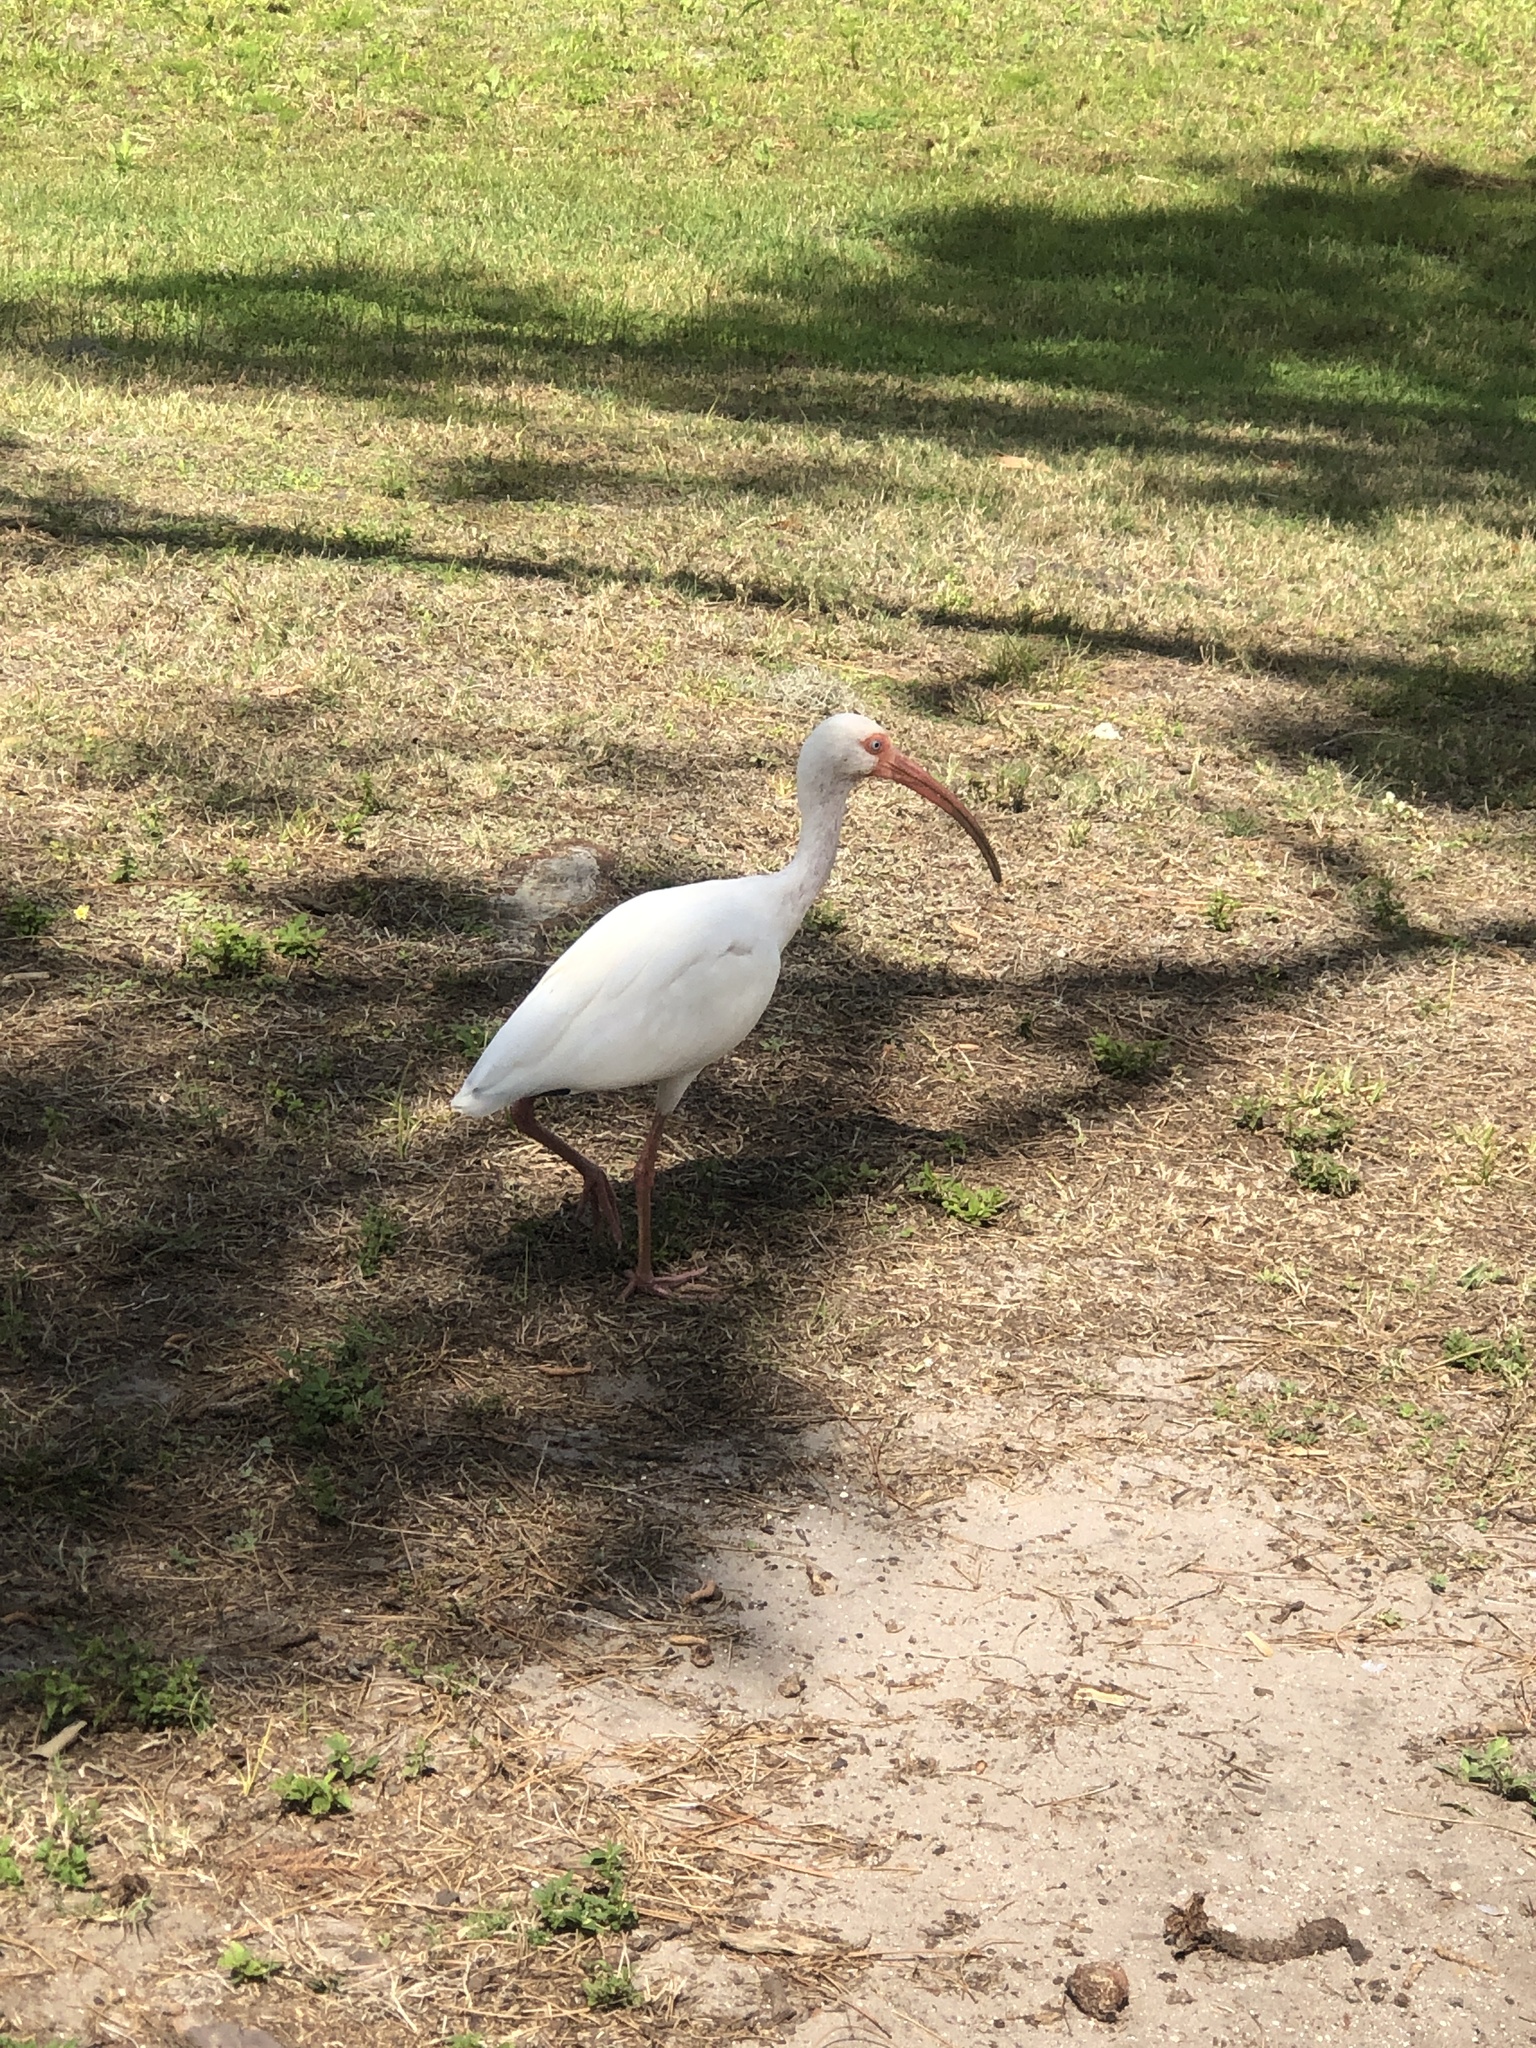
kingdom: Animalia
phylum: Chordata
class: Aves
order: Pelecaniformes
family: Threskiornithidae
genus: Eudocimus
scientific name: Eudocimus albus
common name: White ibis
